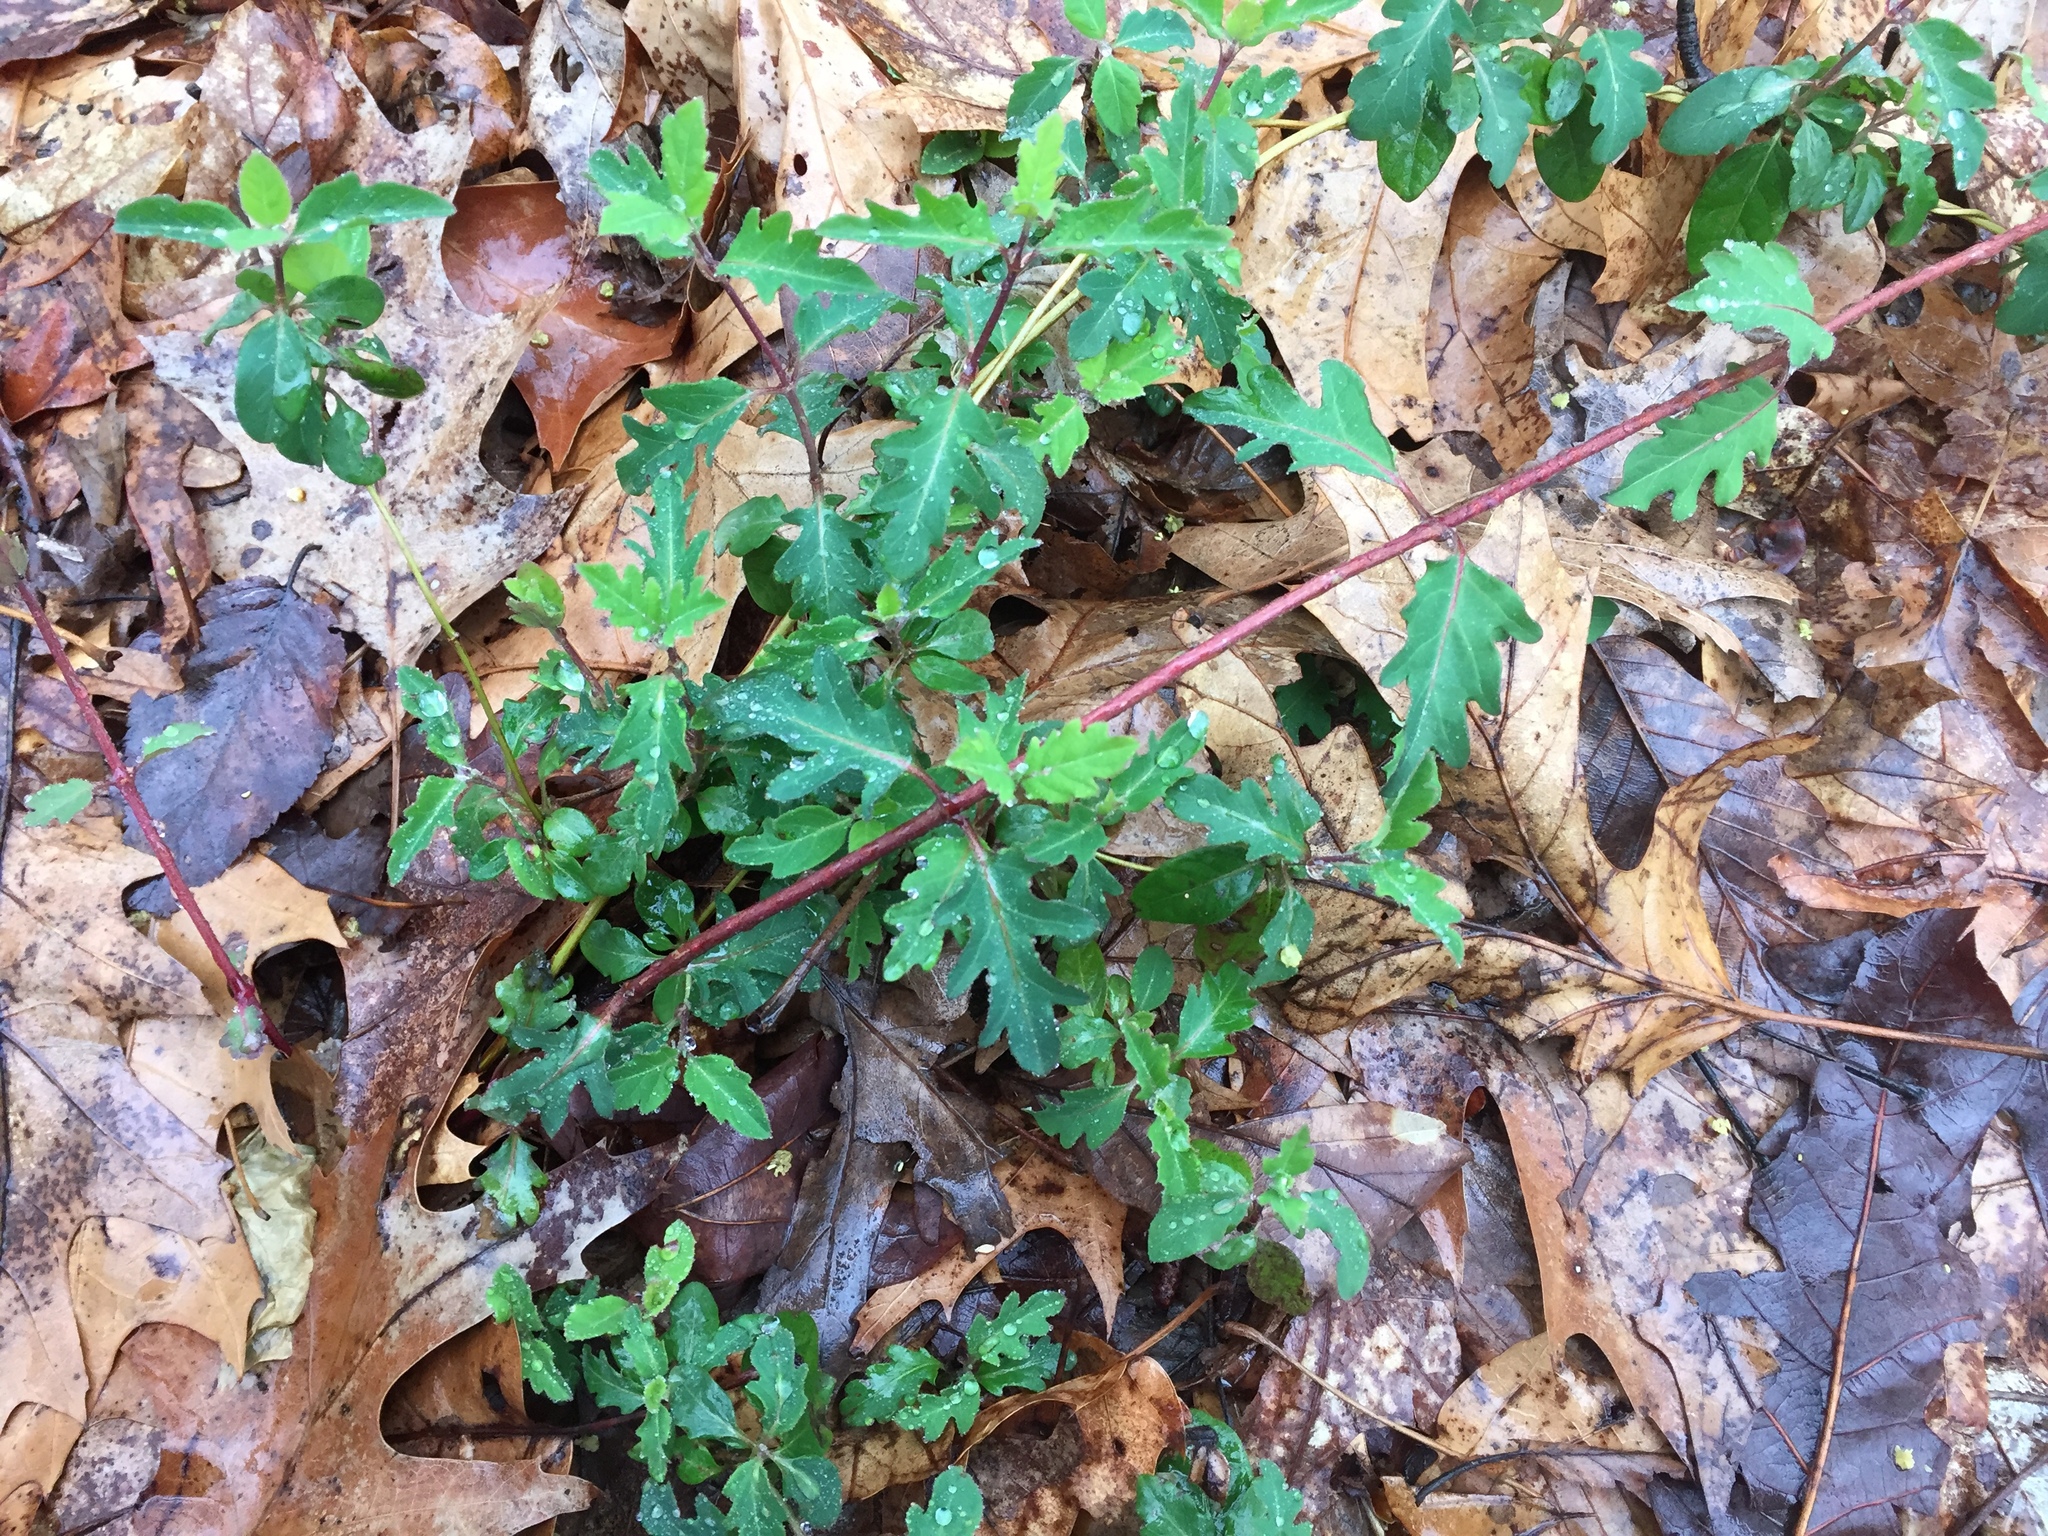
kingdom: Plantae
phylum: Tracheophyta
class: Magnoliopsida
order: Dipsacales
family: Caprifoliaceae
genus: Lonicera
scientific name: Lonicera japonica
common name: Japanese honeysuckle
